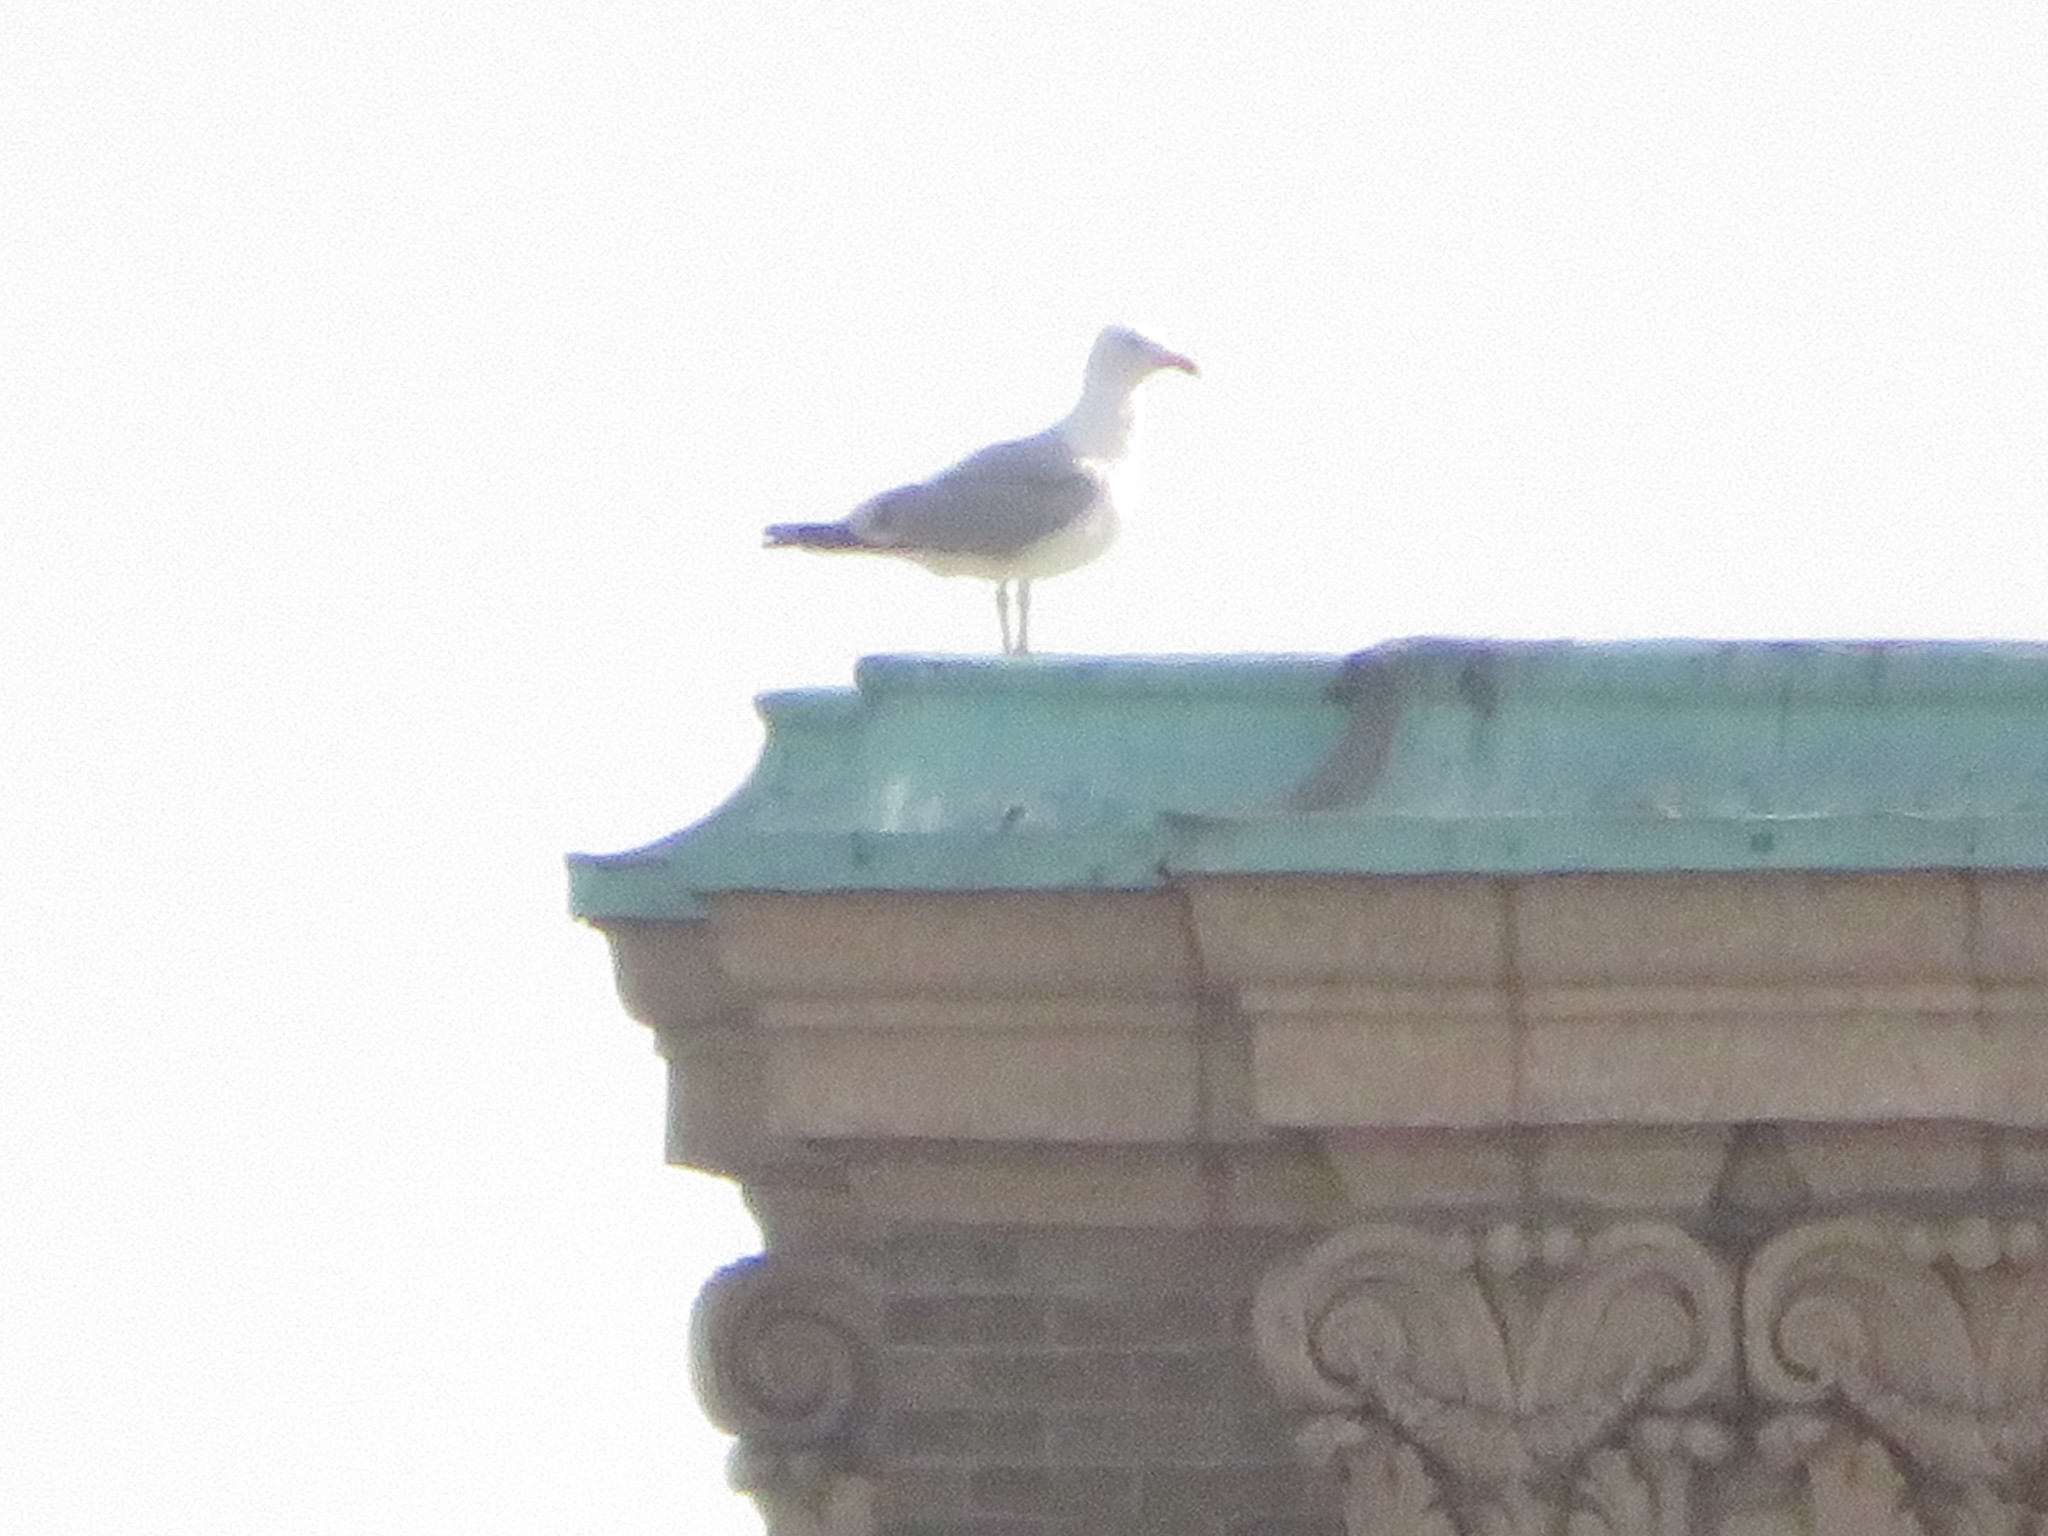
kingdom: Animalia
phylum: Chordata
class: Aves
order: Charadriiformes
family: Laridae
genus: Larus
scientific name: Larus argentatus
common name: Herring gull
